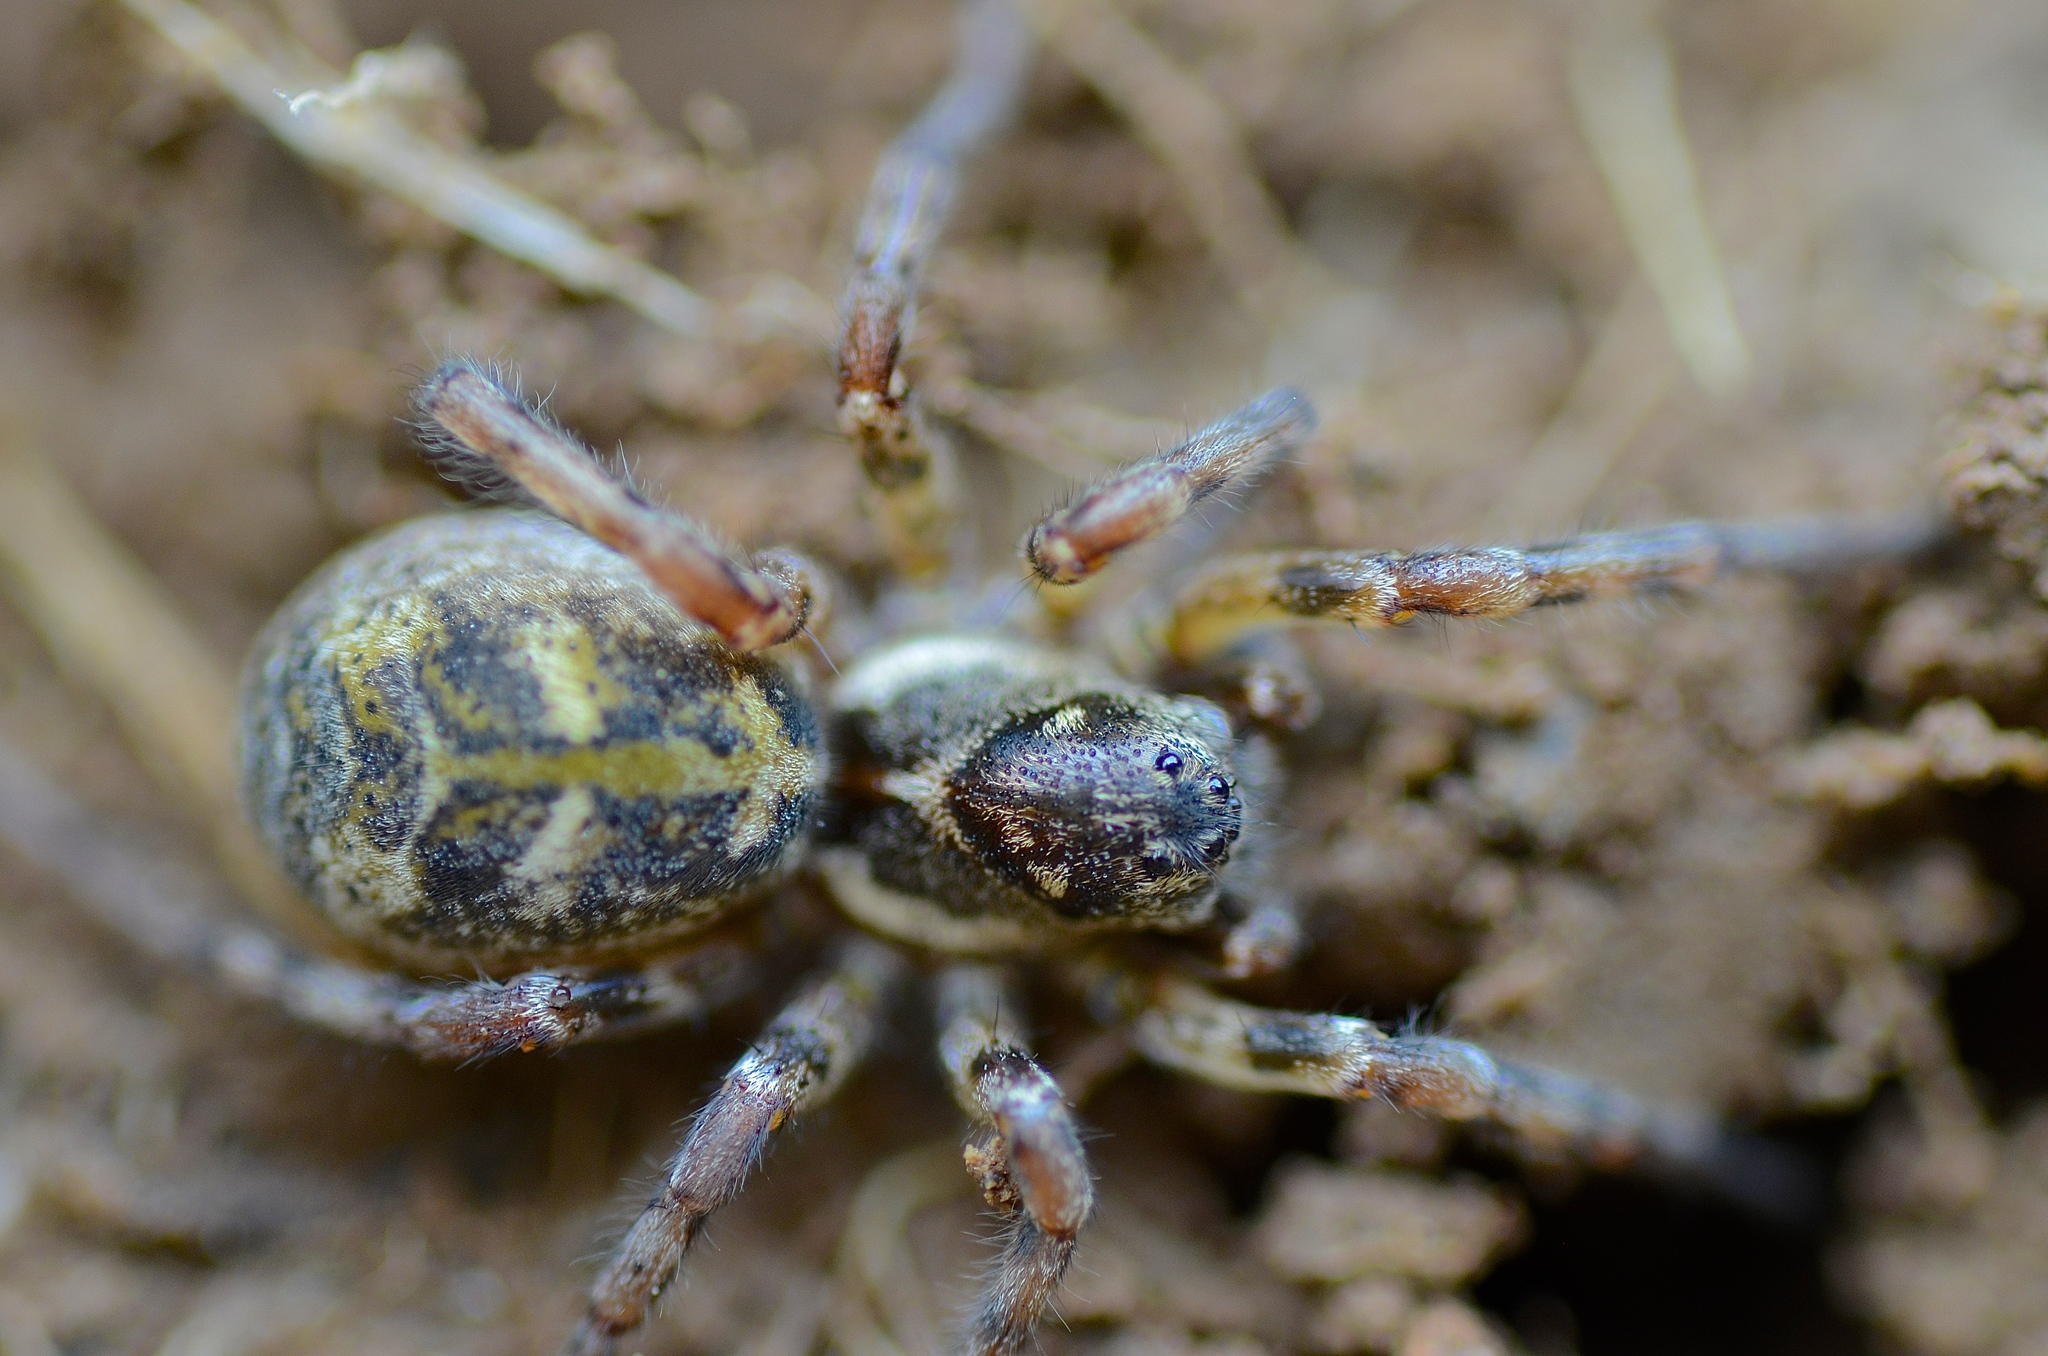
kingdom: Animalia
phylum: Arthropoda
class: Arachnida
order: Araneae
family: Lycosidae
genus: Notocosa
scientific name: Notocosa bellicosa
